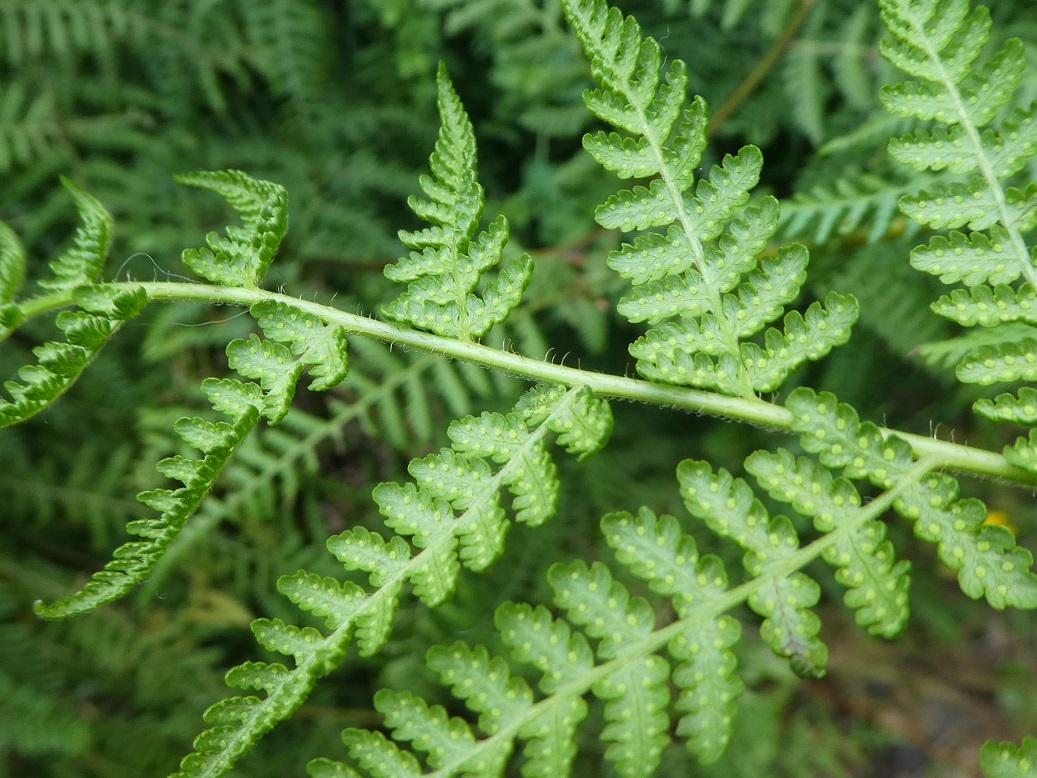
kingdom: Plantae
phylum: Tracheophyta
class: Polypodiopsida
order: Polypodiales
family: Dennstaedtiaceae
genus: Hypolepis
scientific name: Hypolepis ambigua
